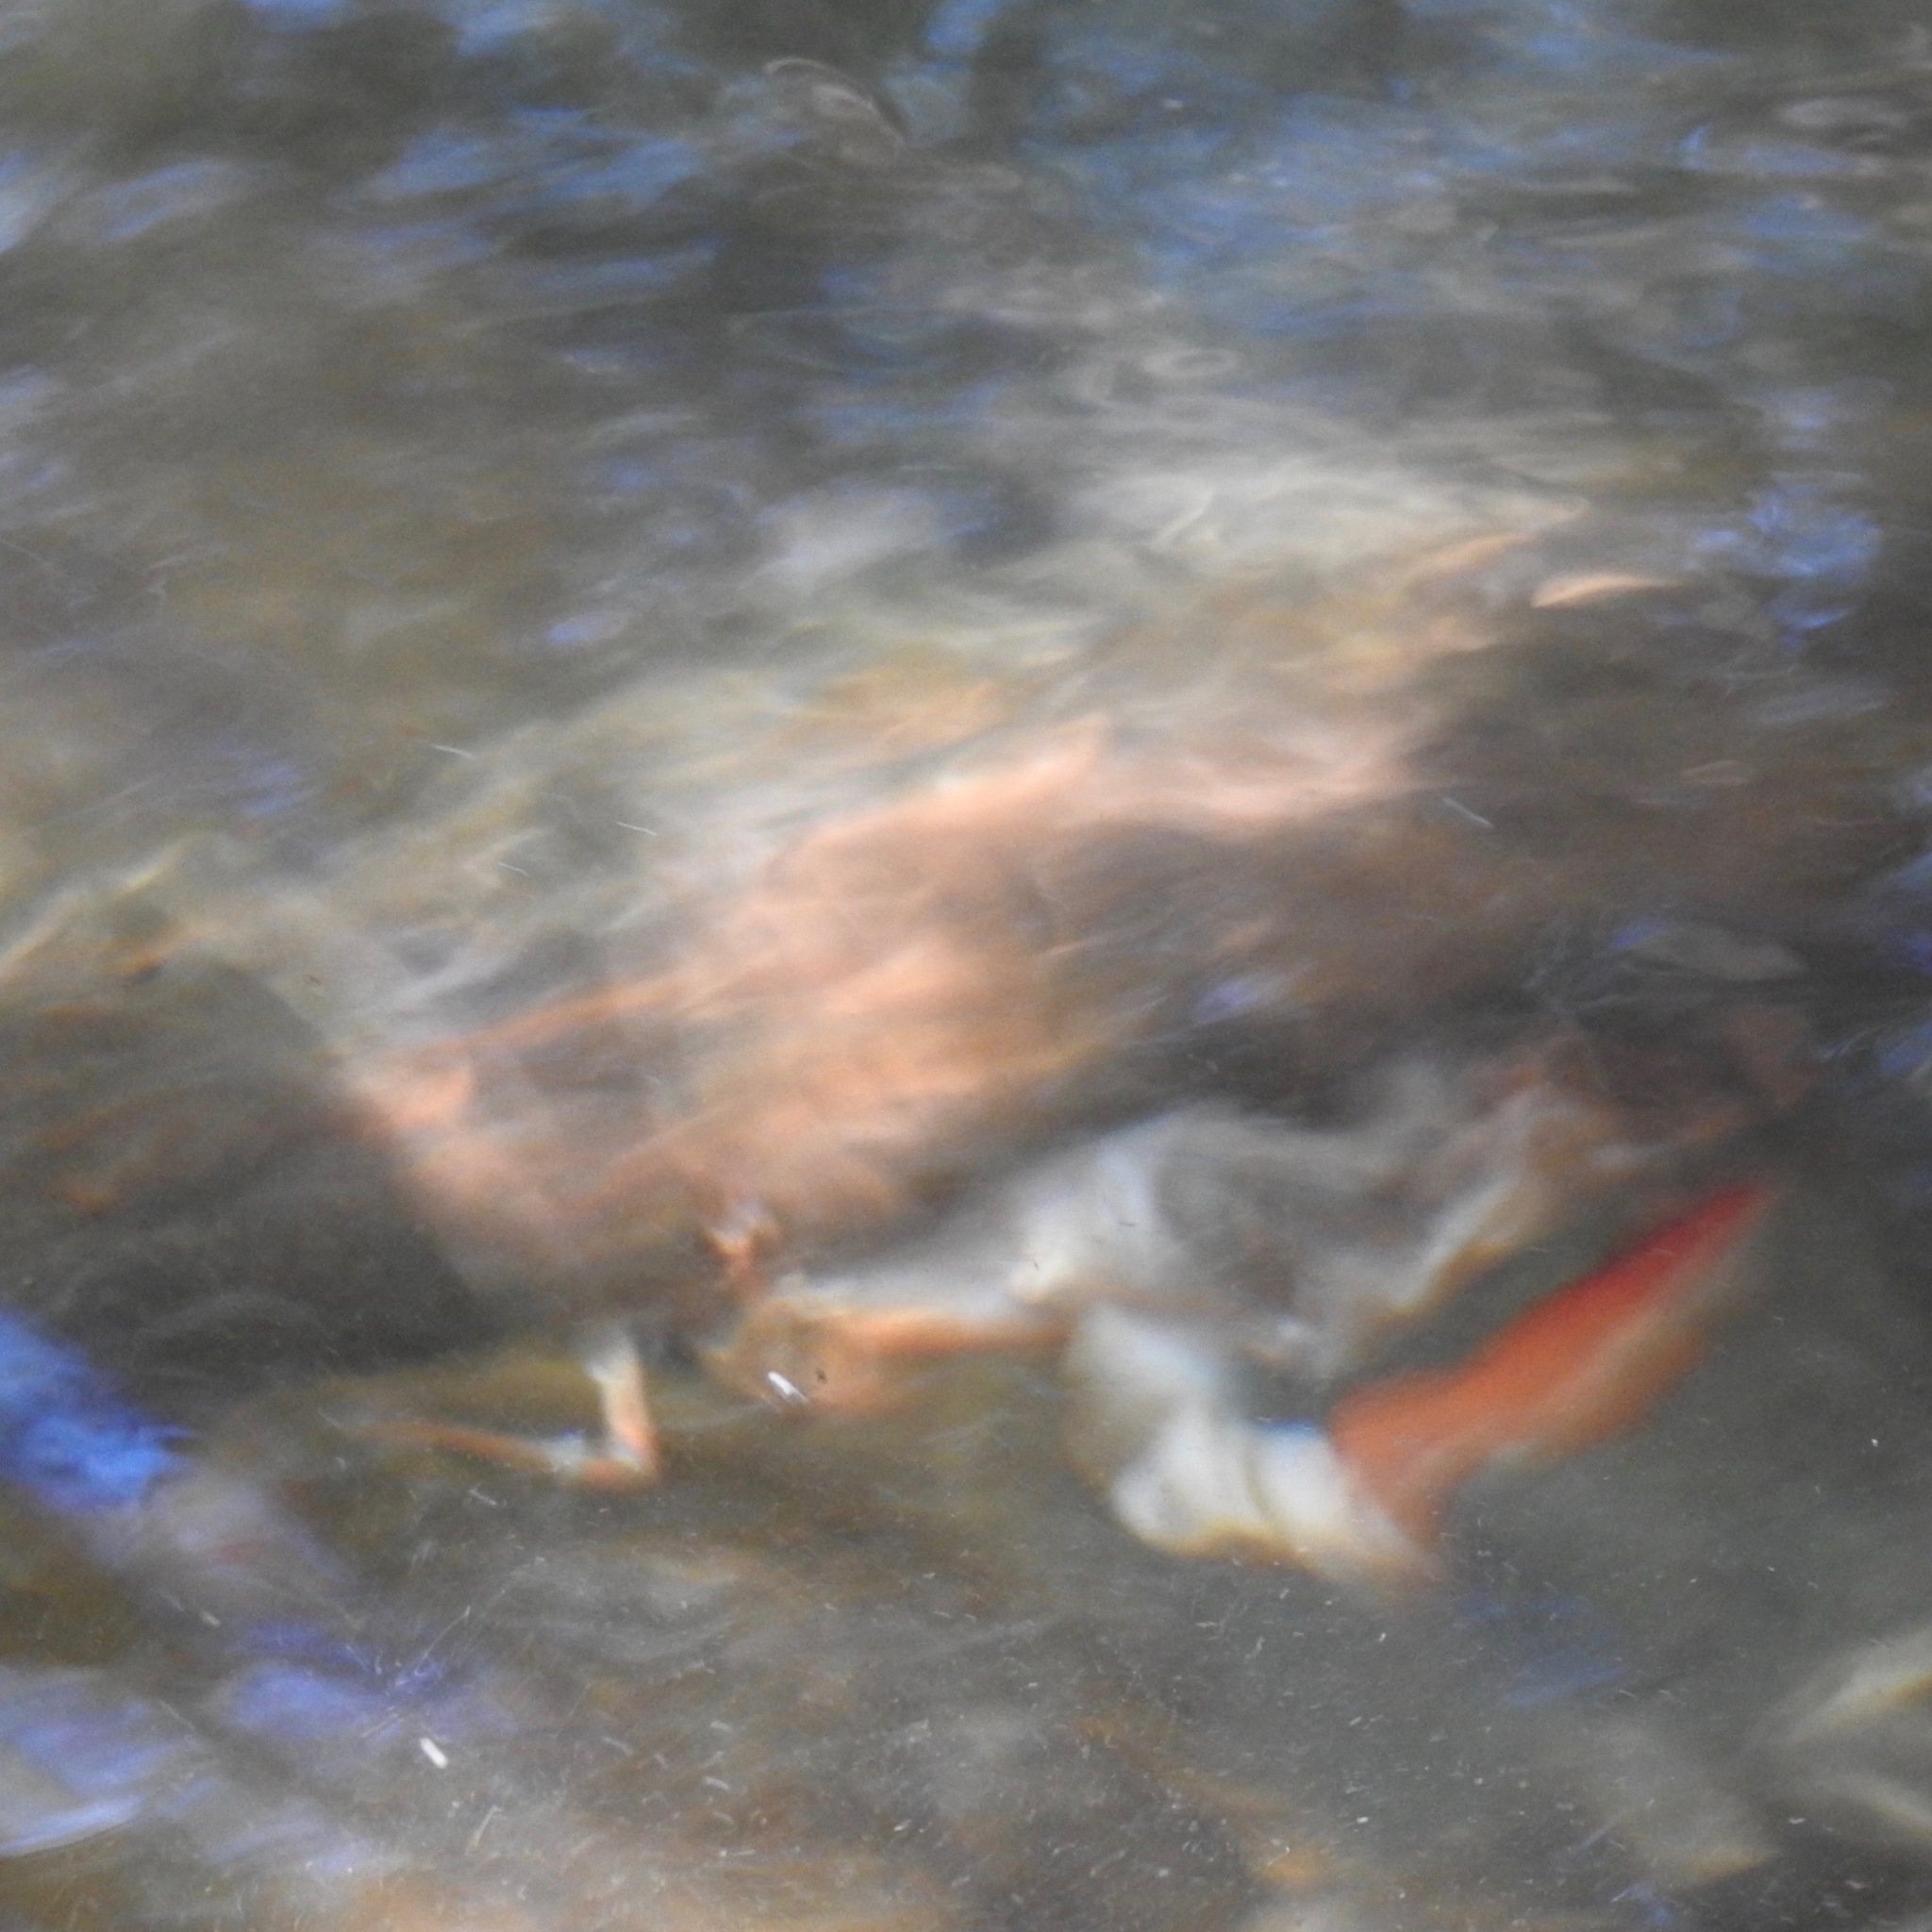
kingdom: Animalia
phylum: Arthropoda
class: Malacostraca
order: Decapoda
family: Astacidae
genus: Pacifastacus
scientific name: Pacifastacus leniusculus
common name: Signal crayfish
